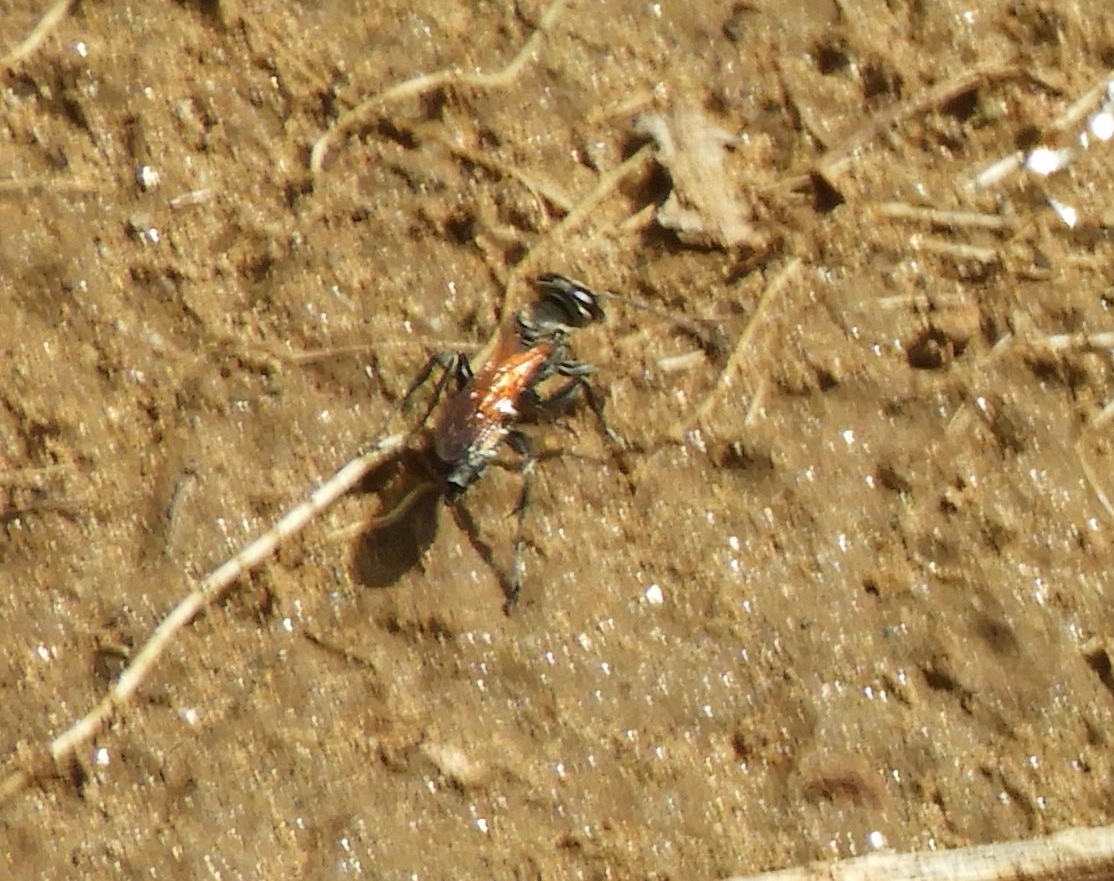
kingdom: Animalia
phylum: Arthropoda
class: Insecta
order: Hymenoptera
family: Crabronidae
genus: Larra
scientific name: Larra
